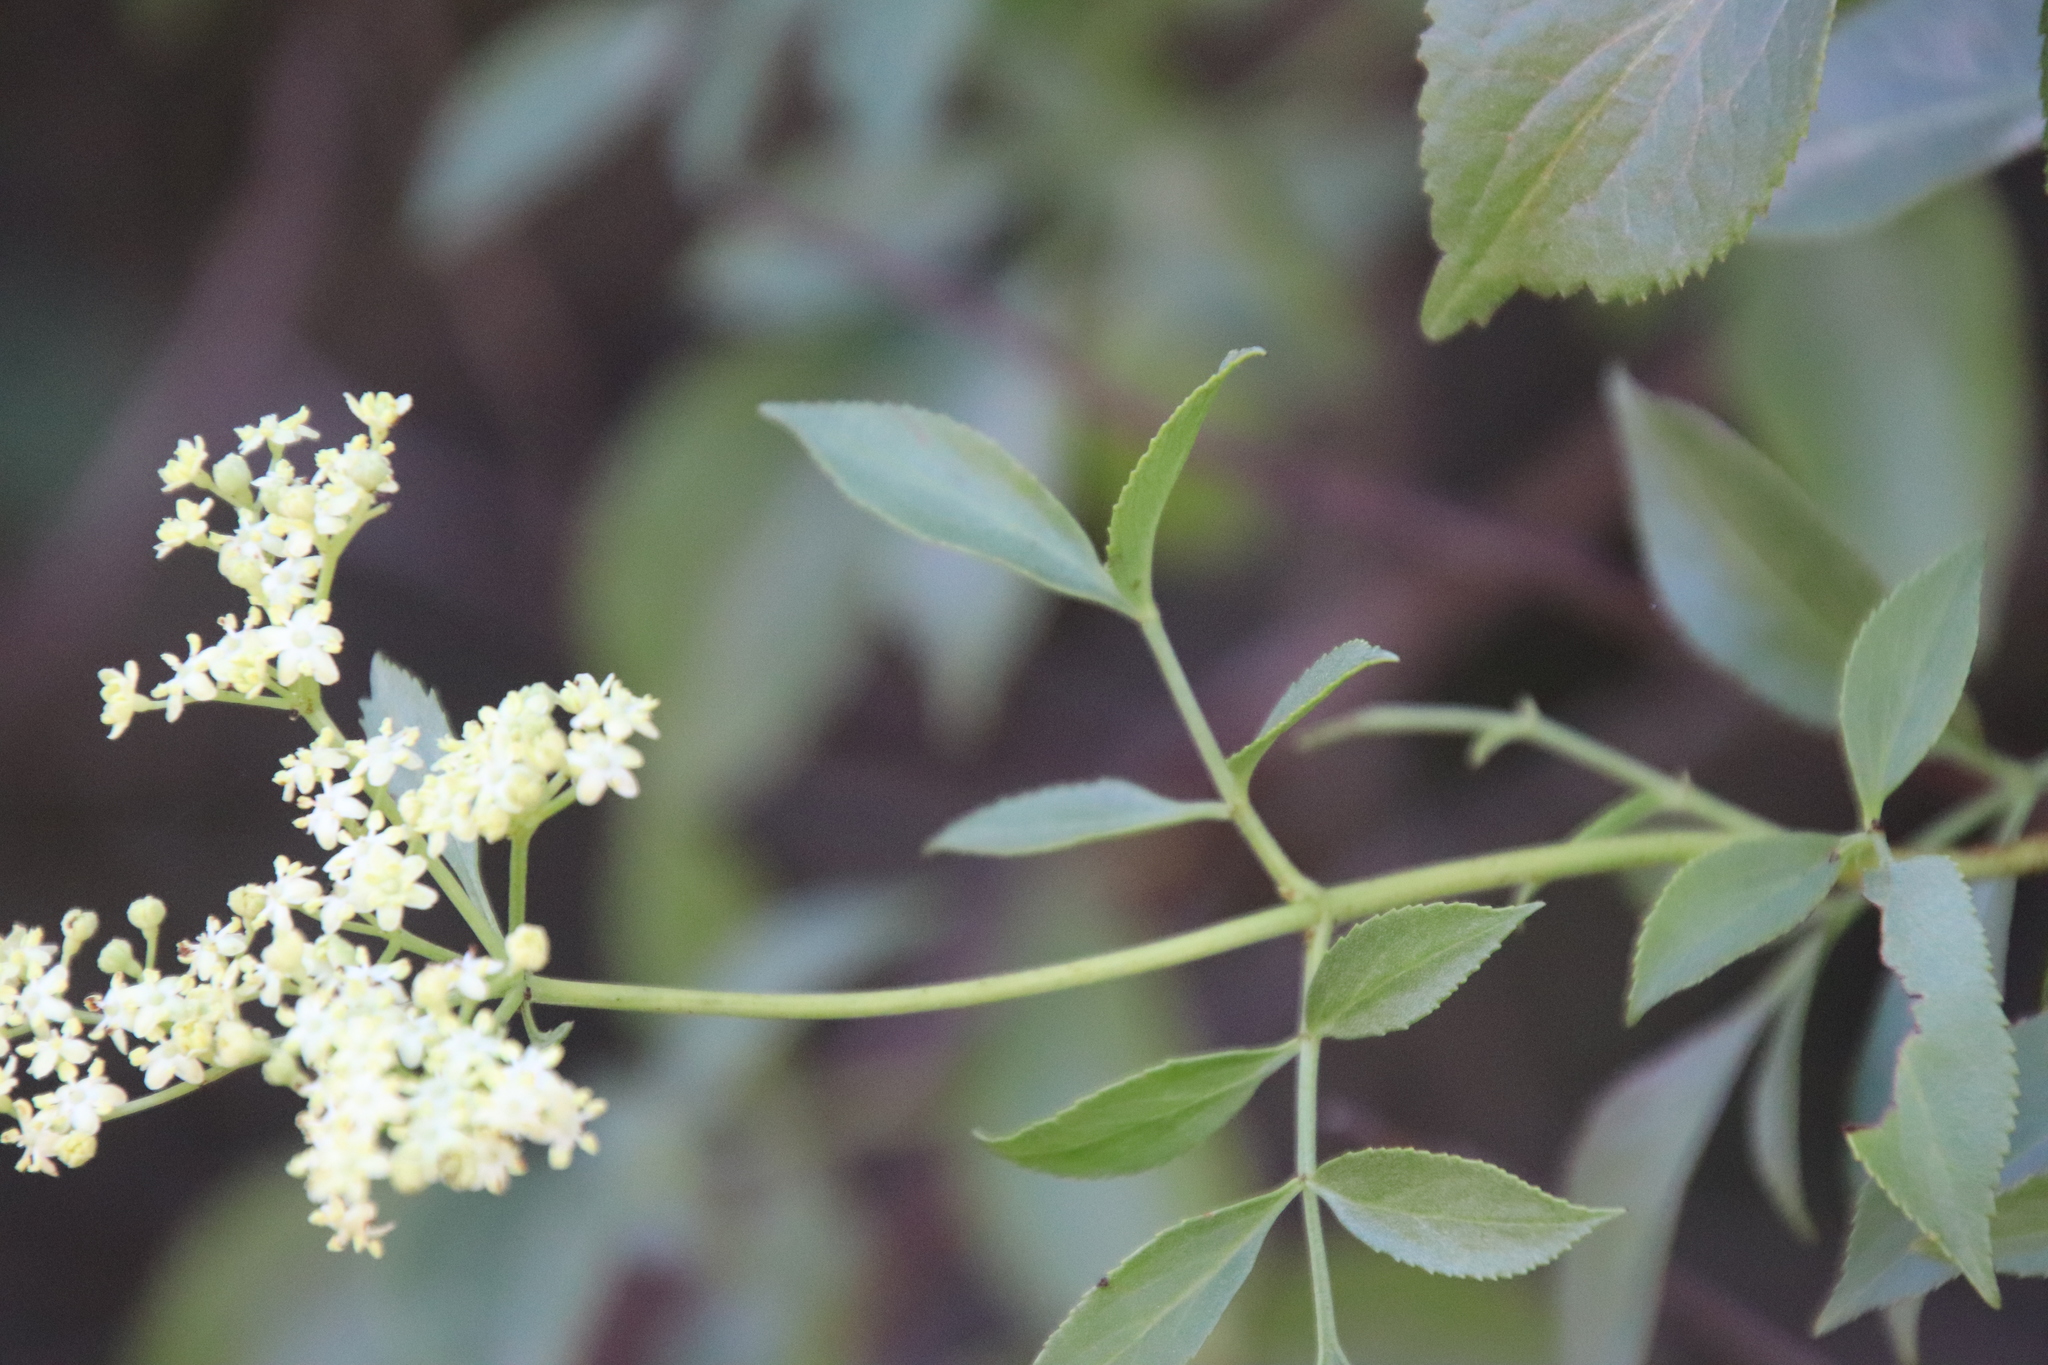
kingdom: Plantae
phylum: Tracheophyta
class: Magnoliopsida
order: Dipsacales
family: Viburnaceae
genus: Sambucus
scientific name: Sambucus cerulea
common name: Blue elder
